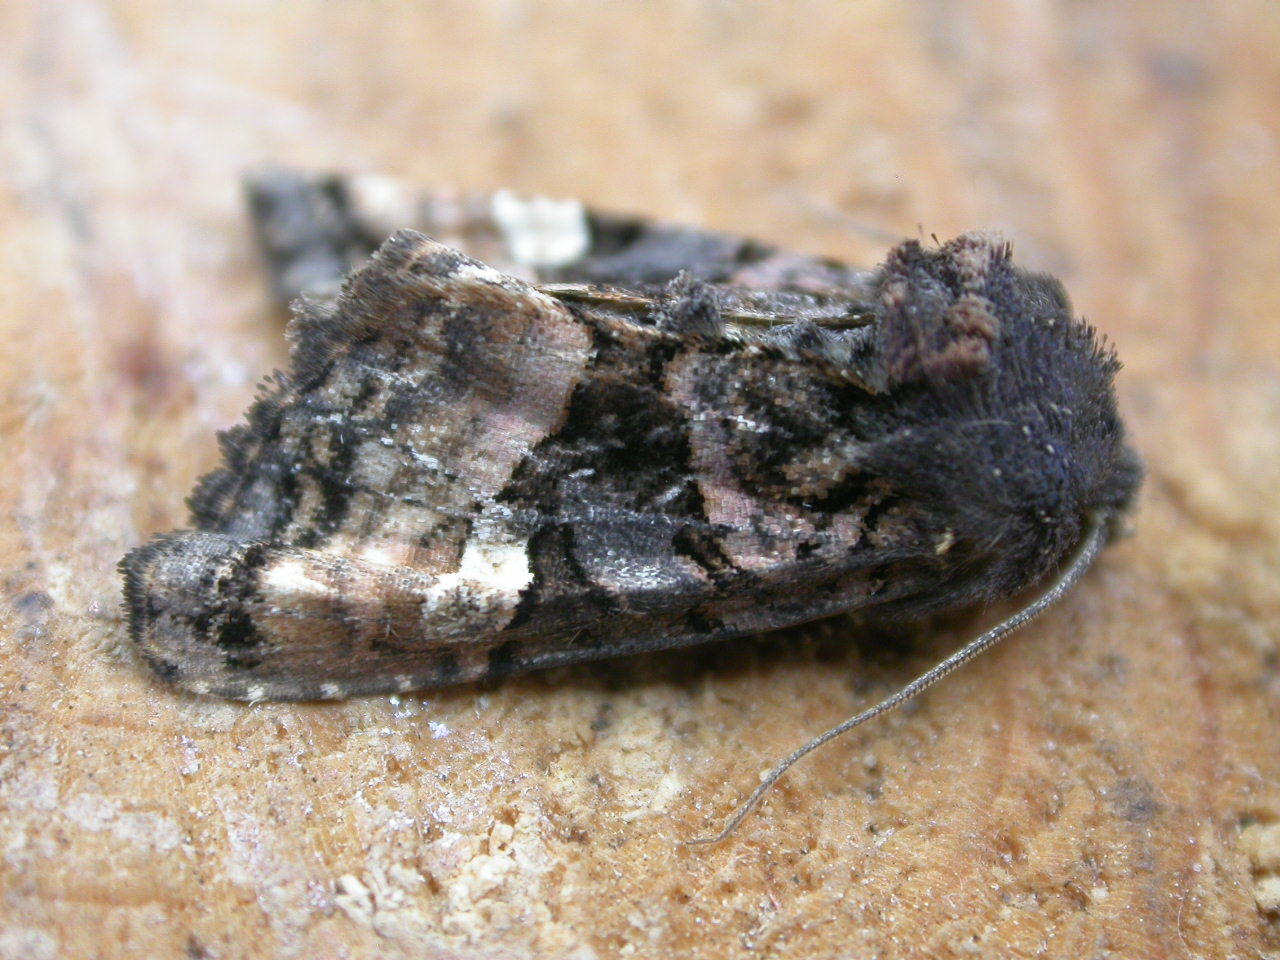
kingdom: Animalia
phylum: Arthropoda
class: Insecta
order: Lepidoptera
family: Noctuidae
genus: Euplexia
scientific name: Euplexia lucipara
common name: Small angle shades
